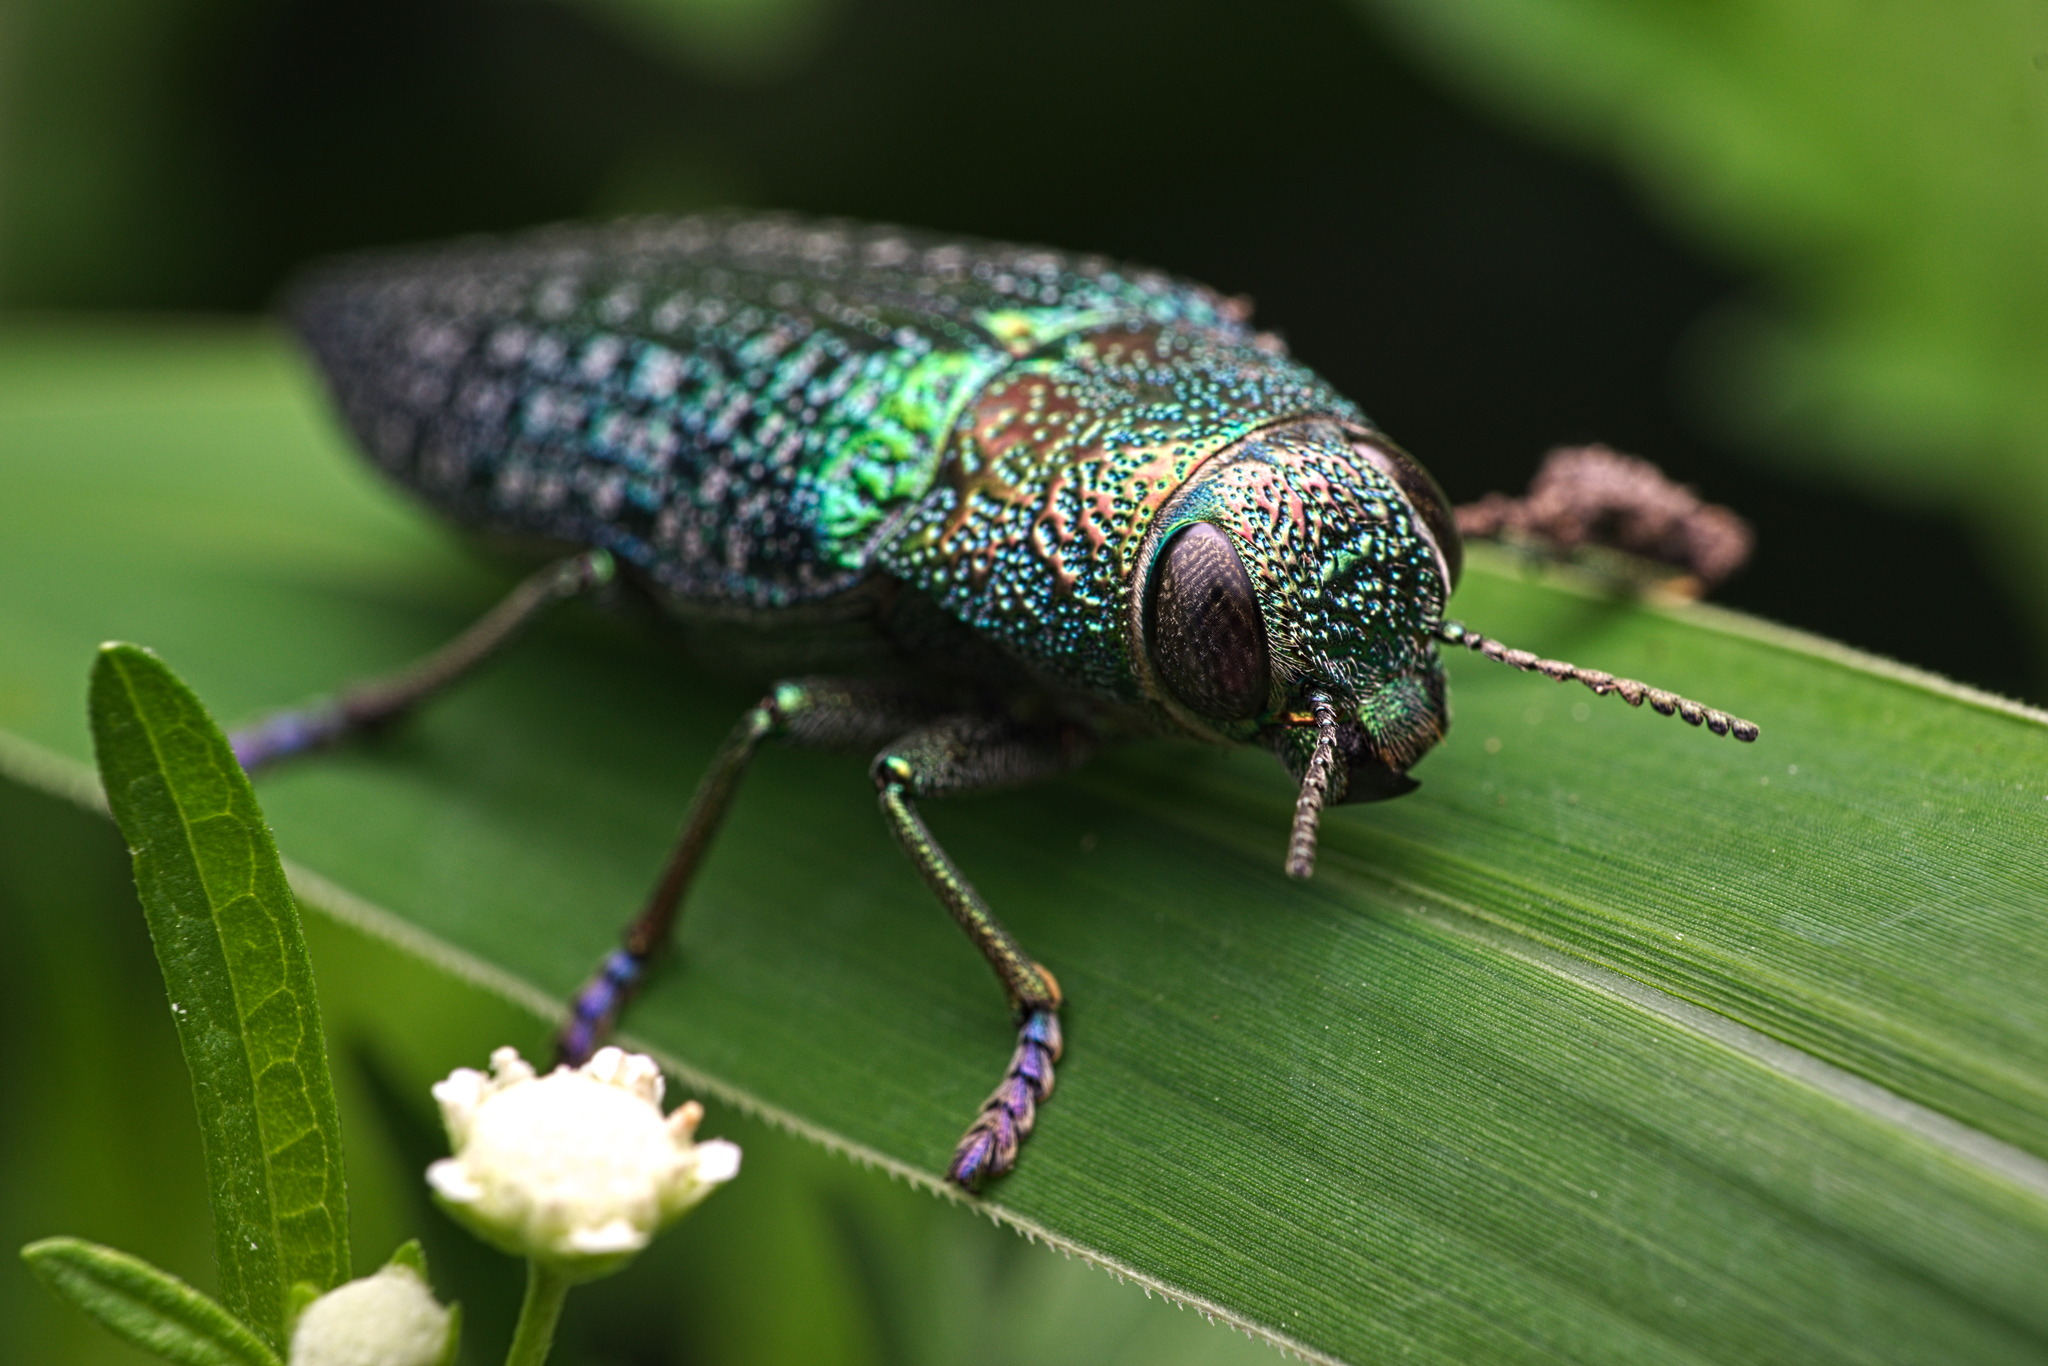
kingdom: Animalia
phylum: Arthropoda
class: Insecta
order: Coleoptera
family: Buprestidae
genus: Lampetis
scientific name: Lampetis cyanitarsis
